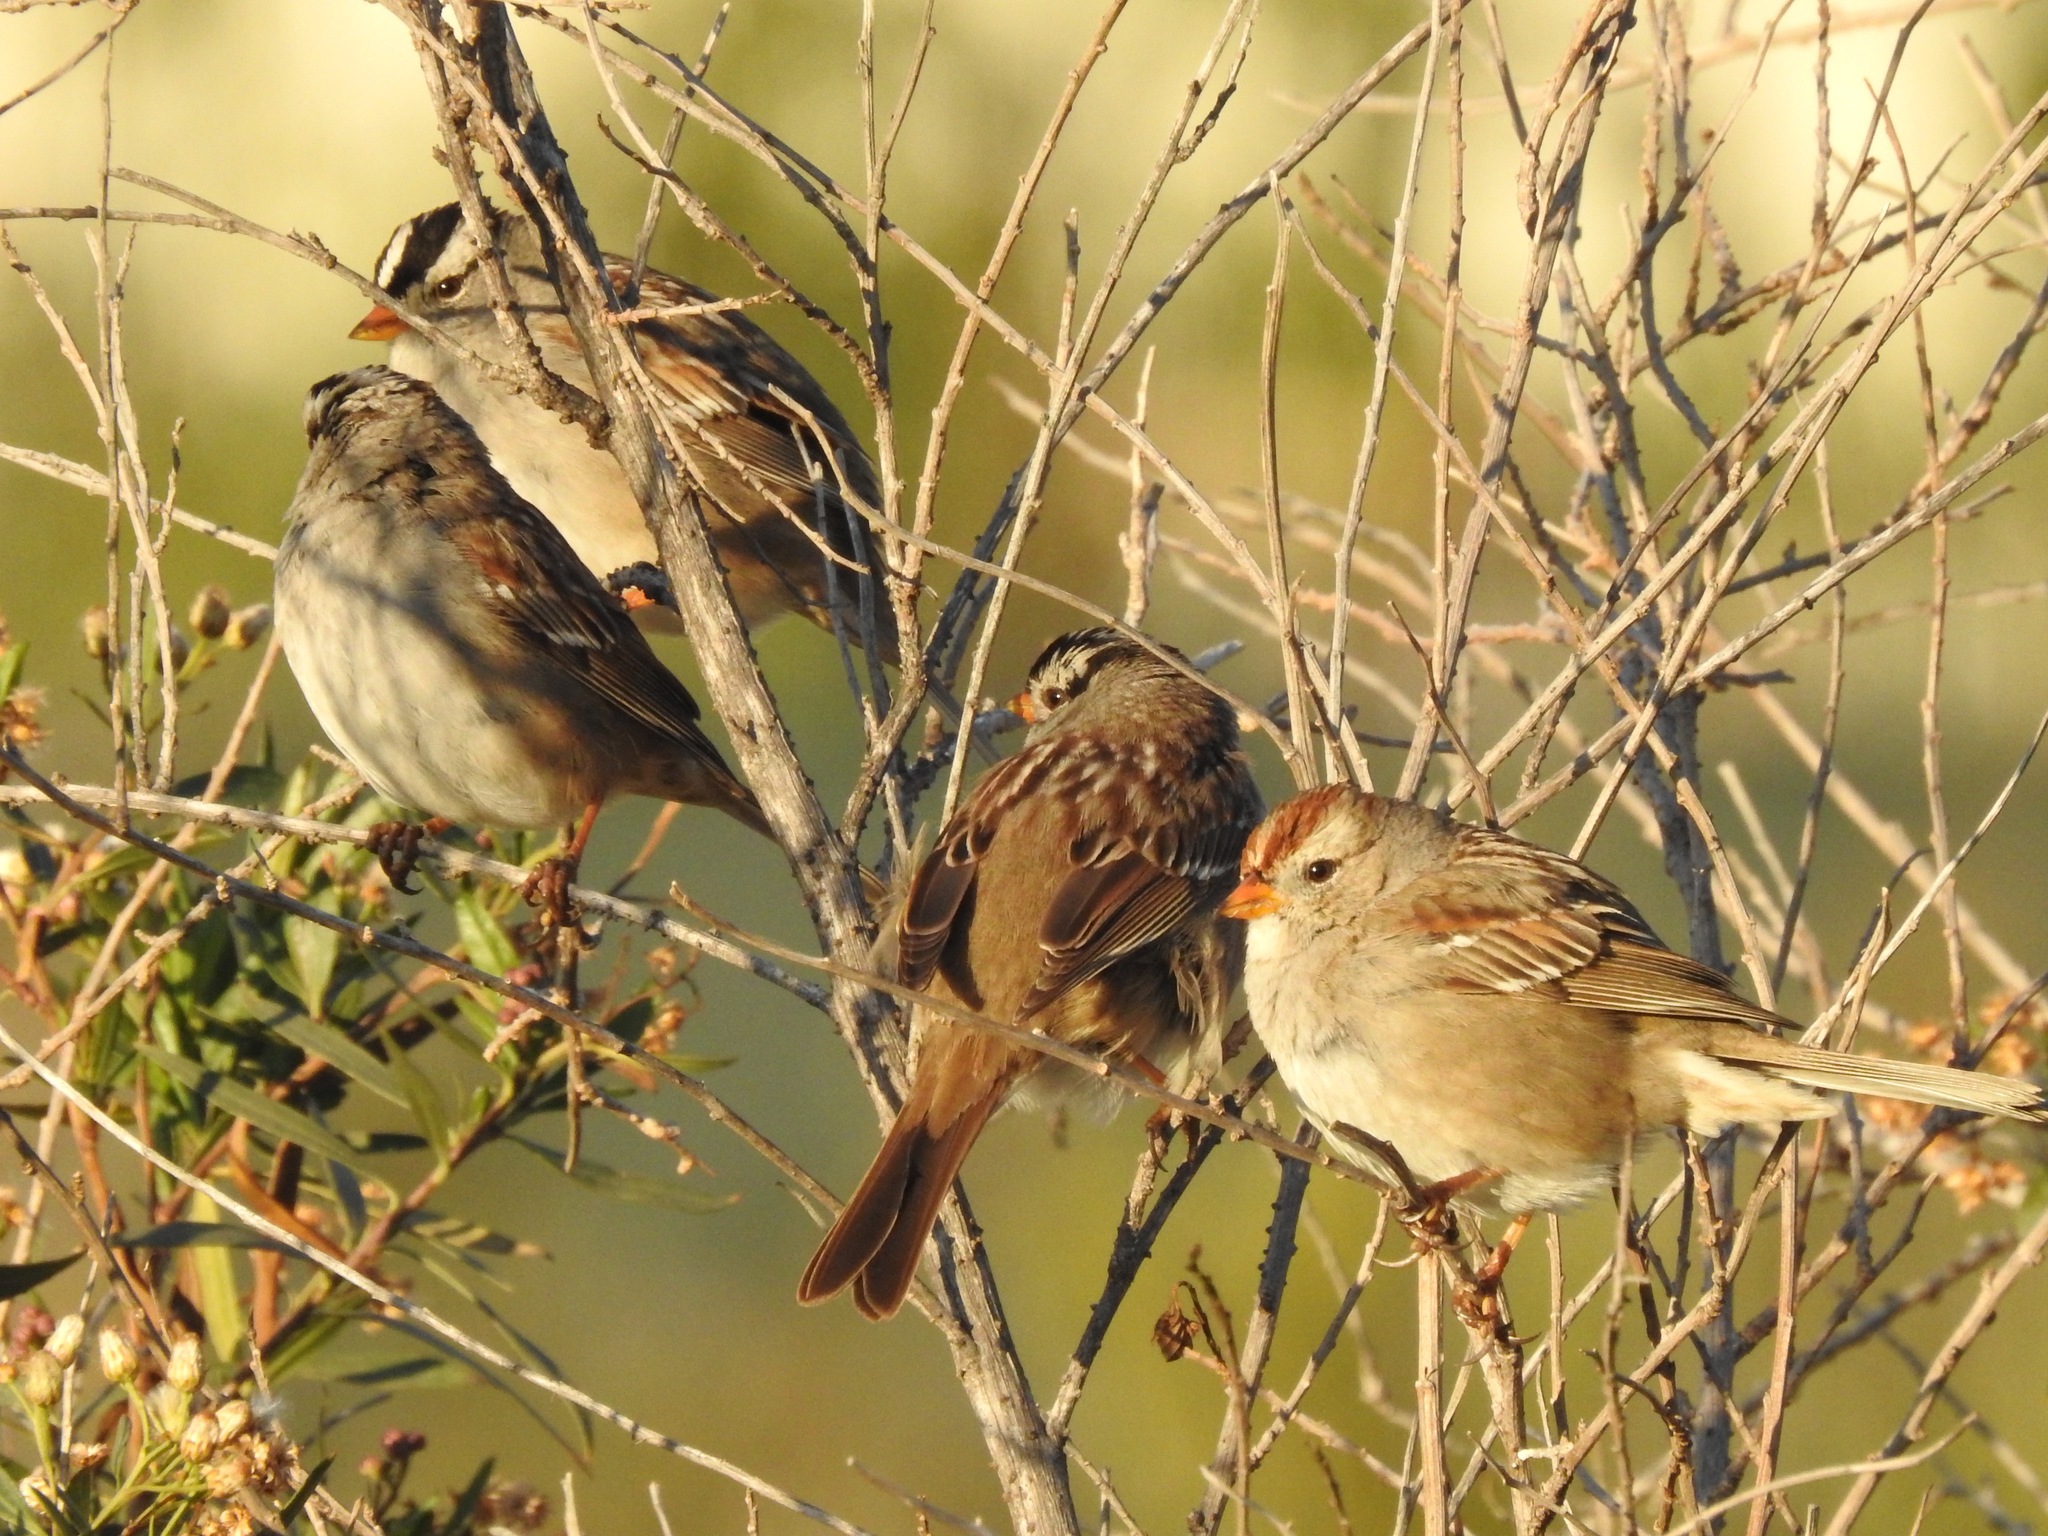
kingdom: Animalia
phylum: Chordata
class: Aves
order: Passeriformes
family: Passerellidae
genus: Zonotrichia
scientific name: Zonotrichia leucophrys
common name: White-crowned sparrow
